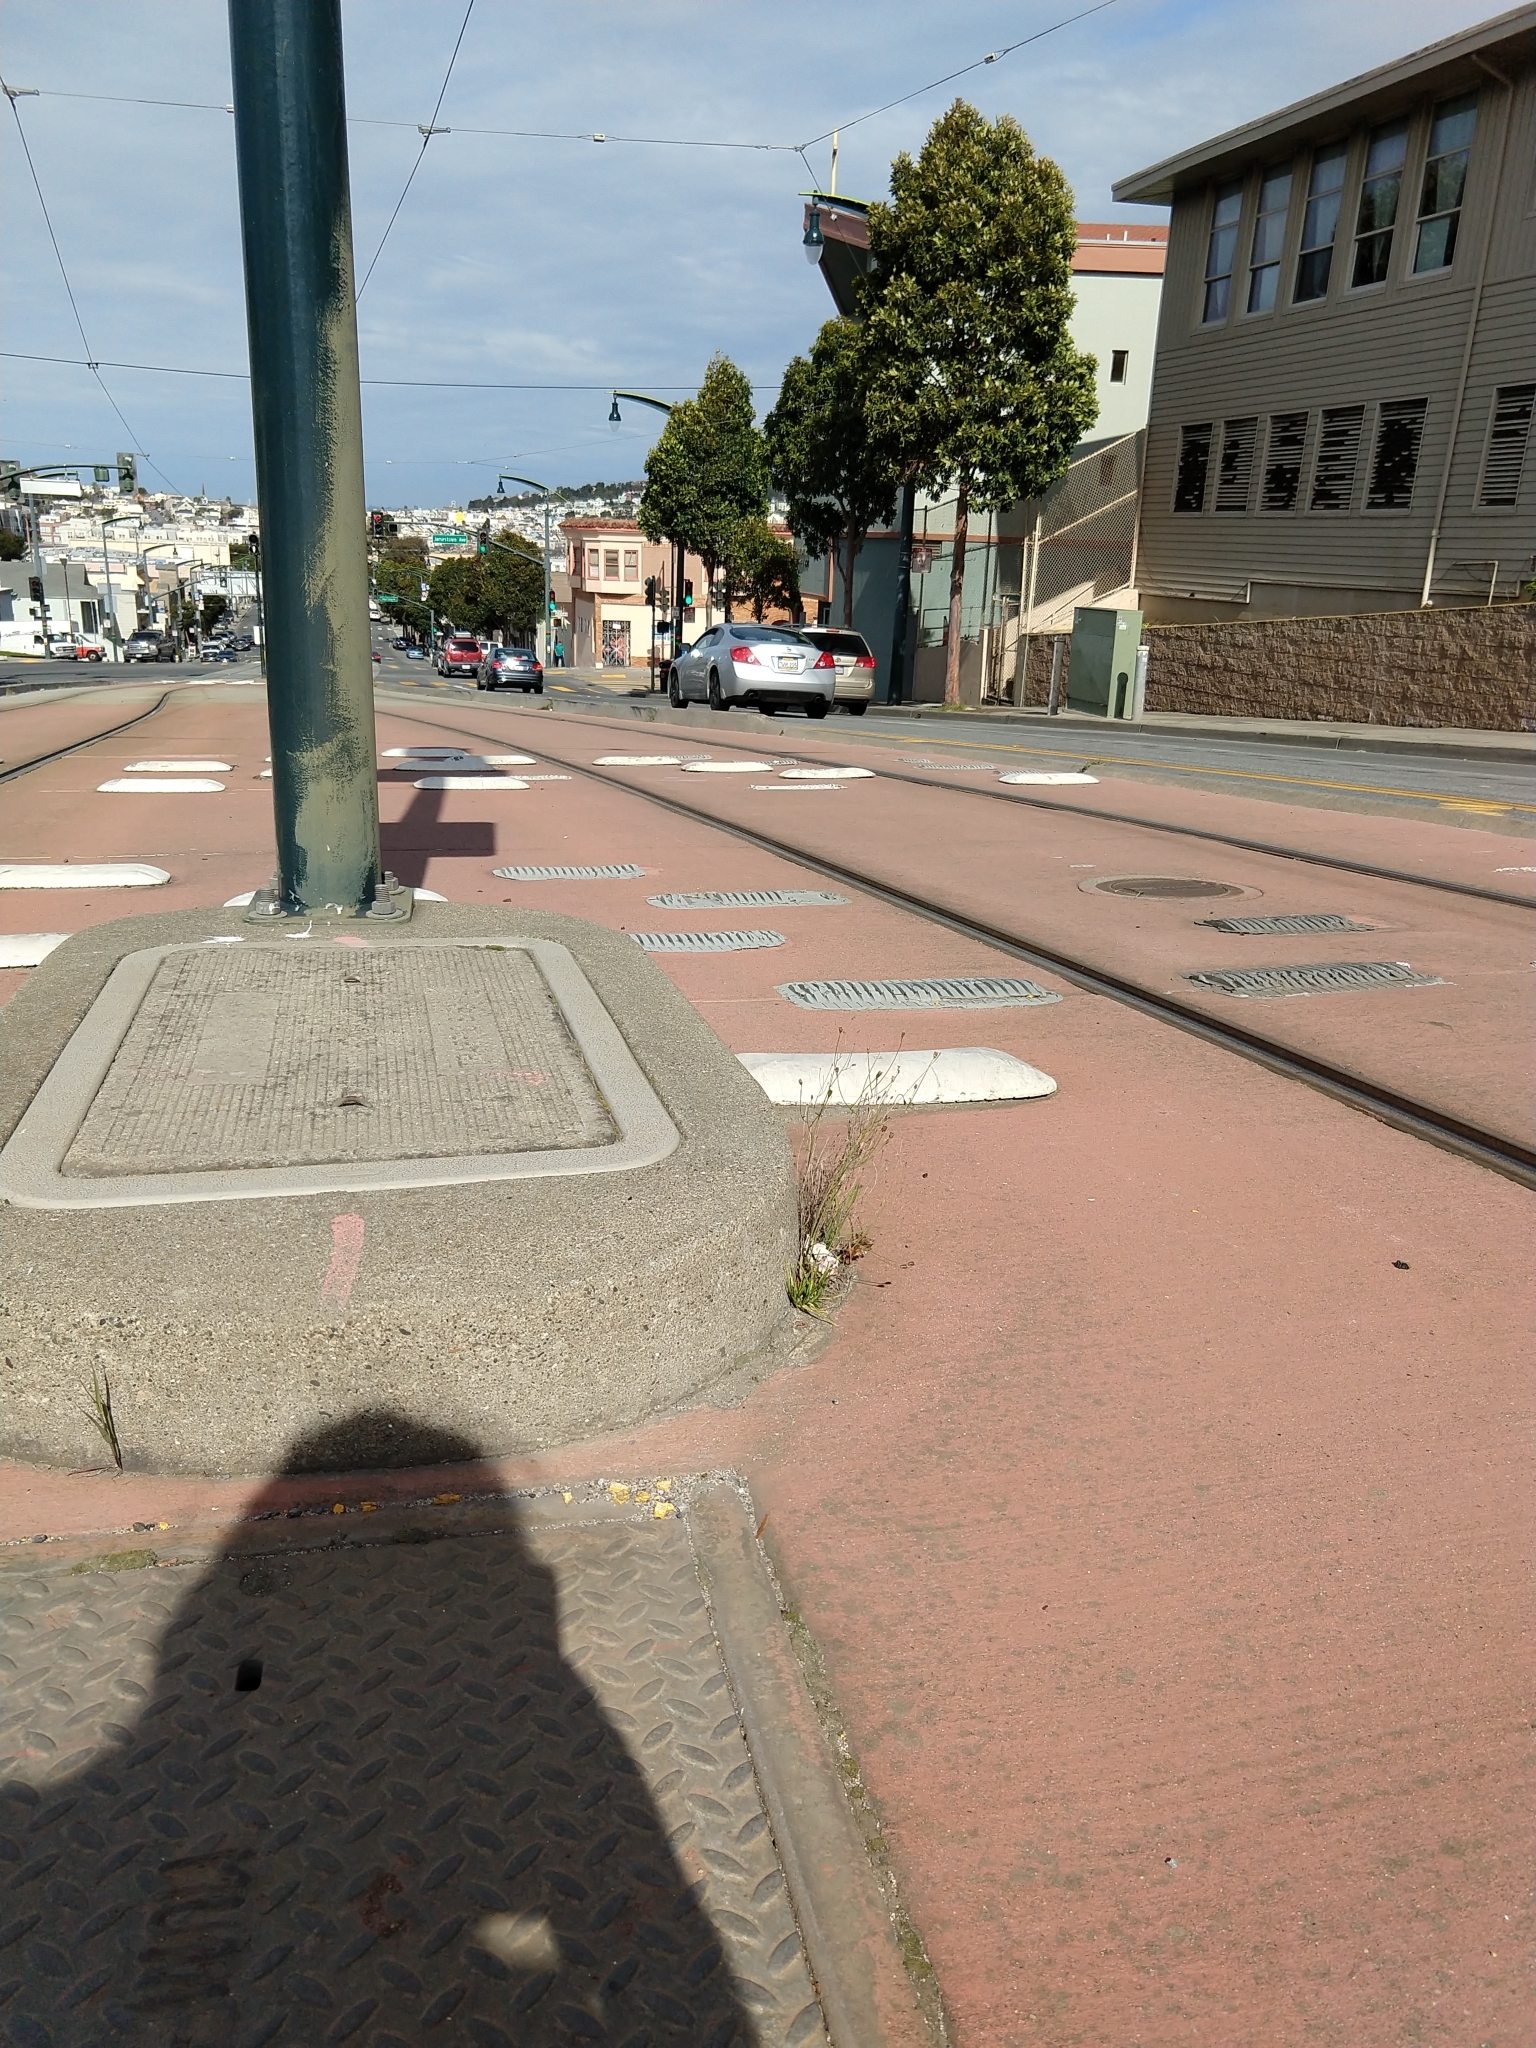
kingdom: Plantae
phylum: Tracheophyta
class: Magnoliopsida
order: Asterales
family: Campanulaceae
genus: Wahlenbergia
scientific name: Wahlenbergia marginata
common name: Southern rockbell
